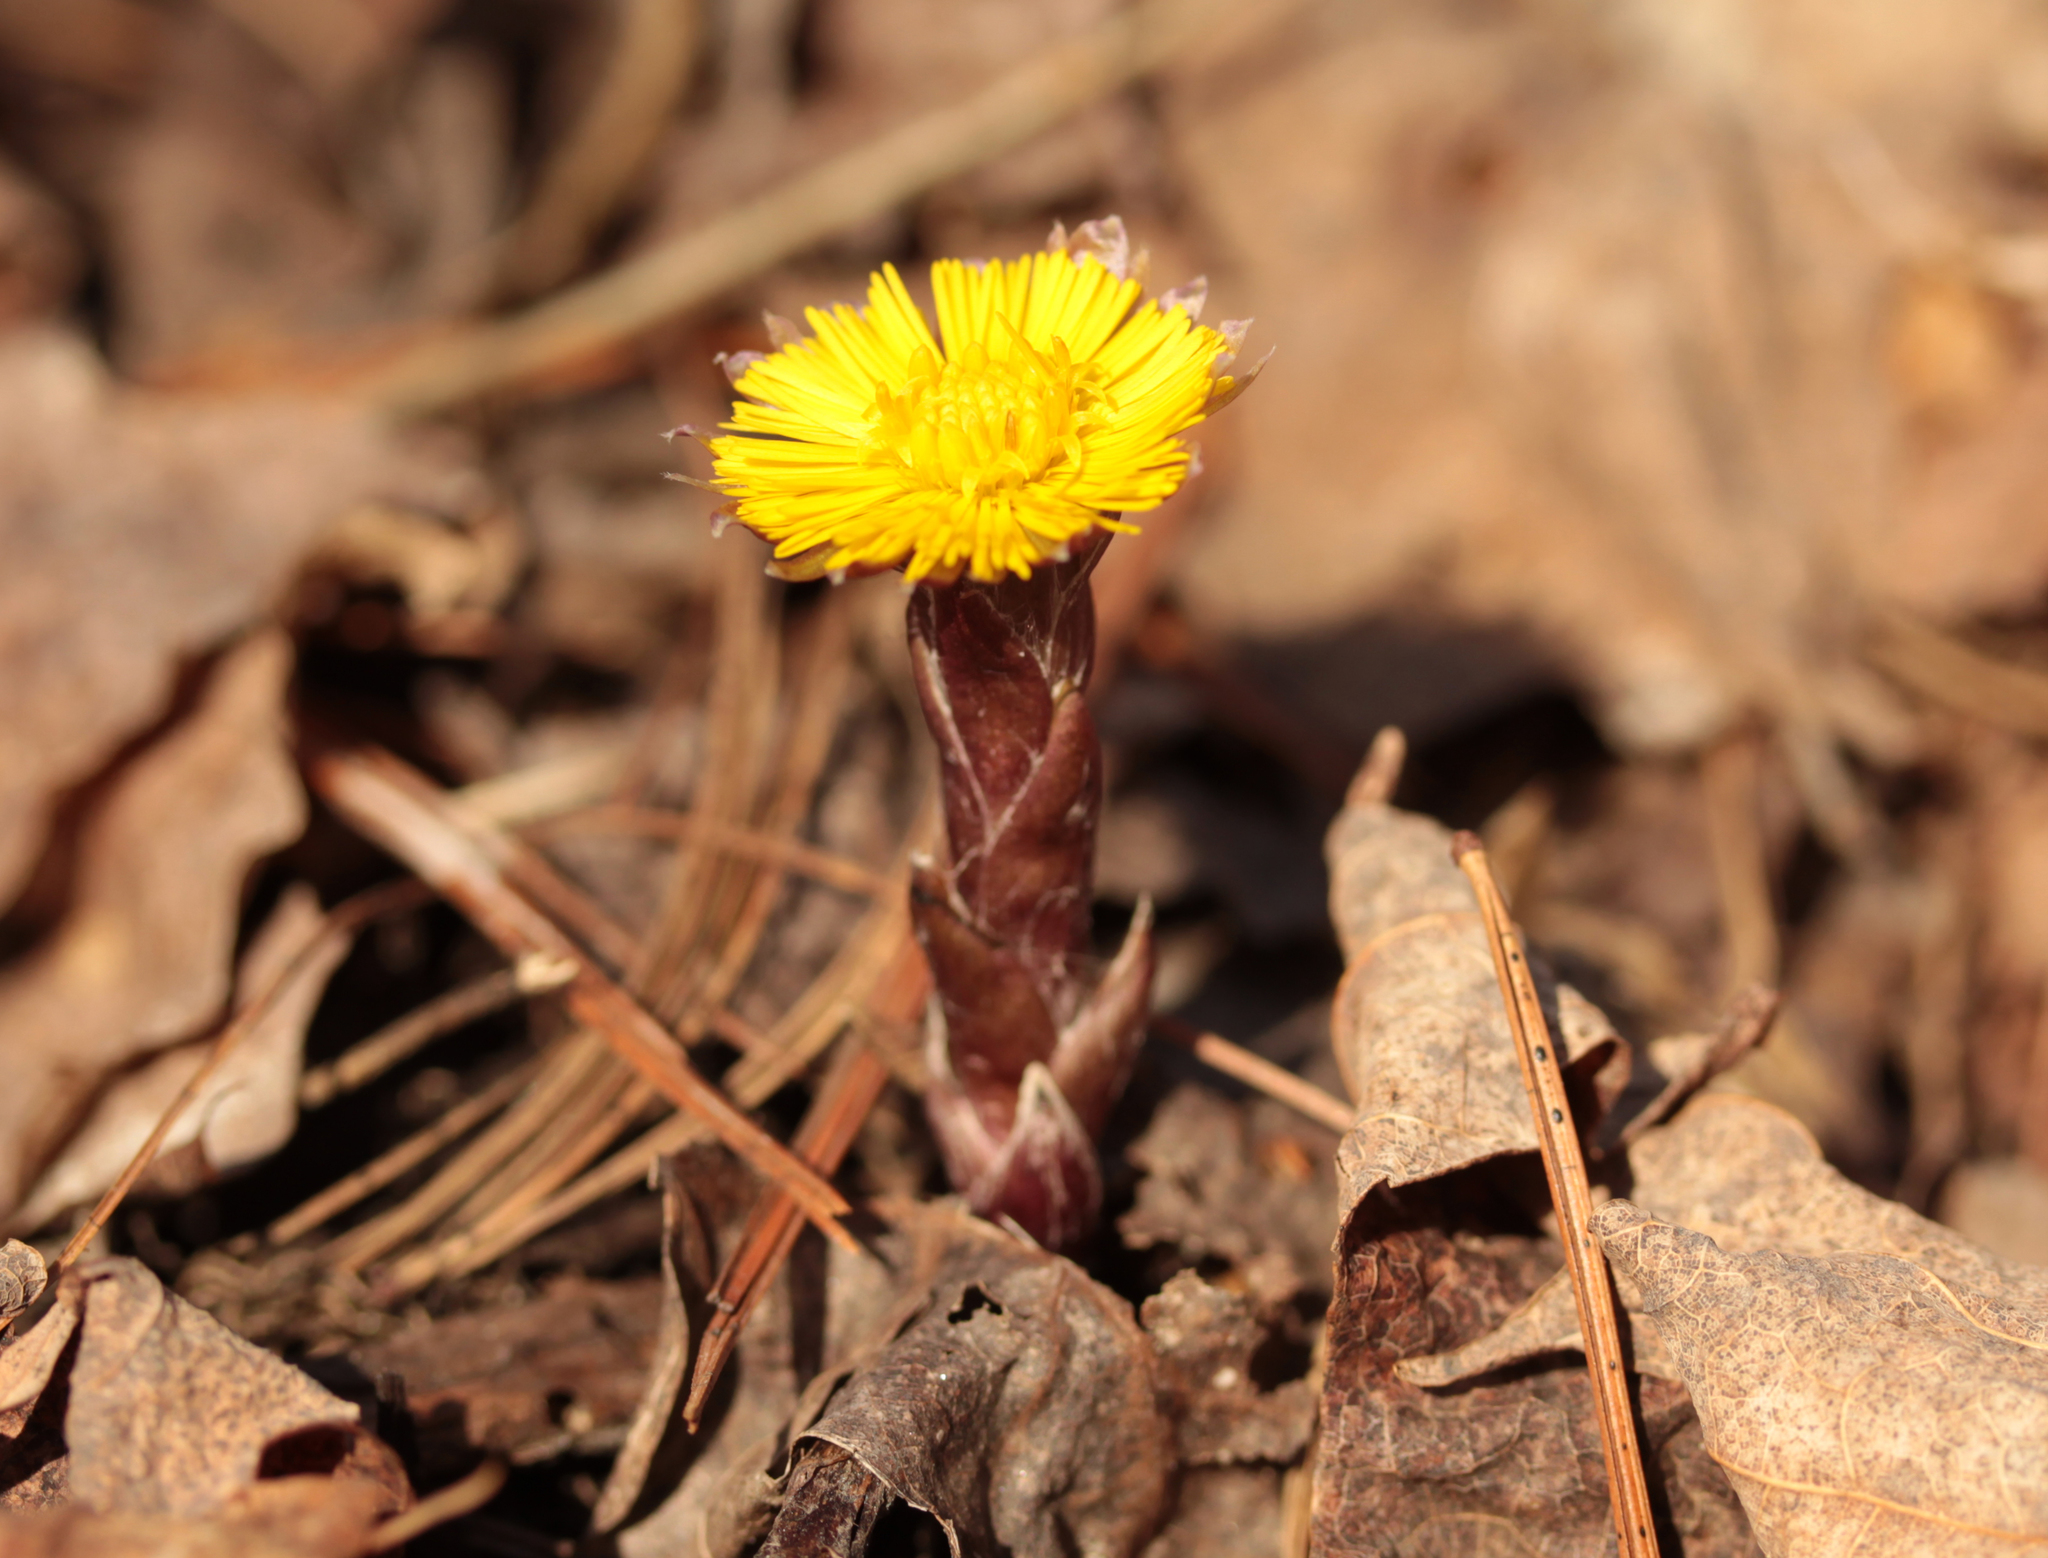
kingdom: Plantae
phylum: Tracheophyta
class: Magnoliopsida
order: Asterales
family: Asteraceae
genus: Tussilago
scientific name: Tussilago farfara
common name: Coltsfoot
